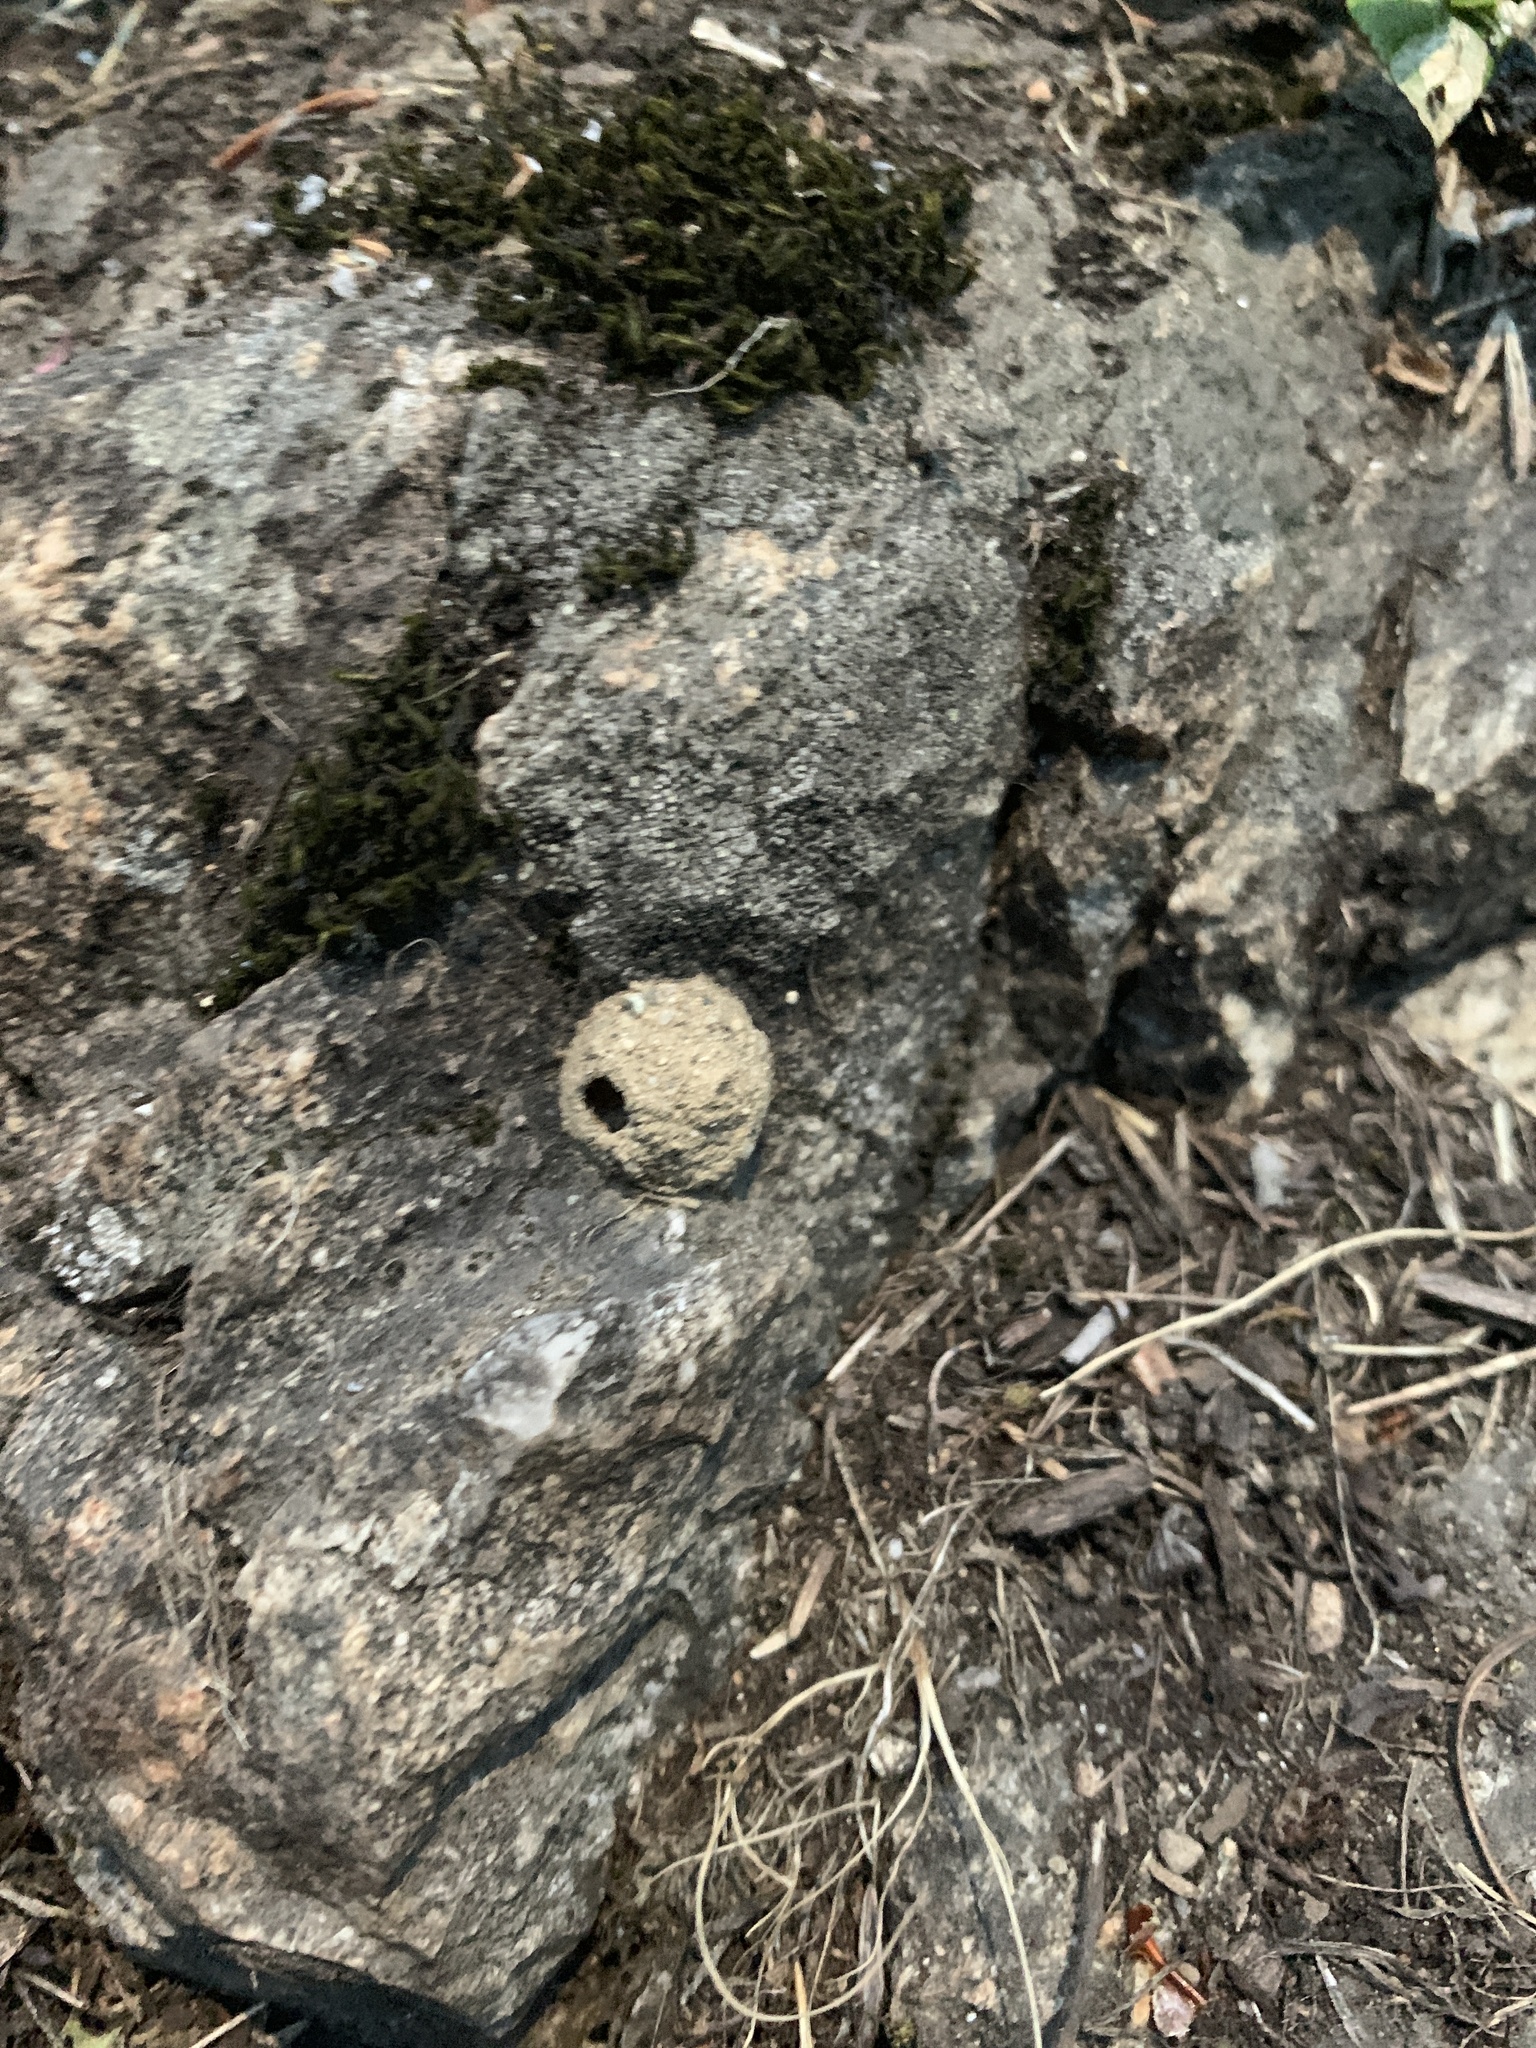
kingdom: Animalia
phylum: Arthropoda
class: Insecta
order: Hymenoptera
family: Vespidae
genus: Eumenes
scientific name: Eumenes
